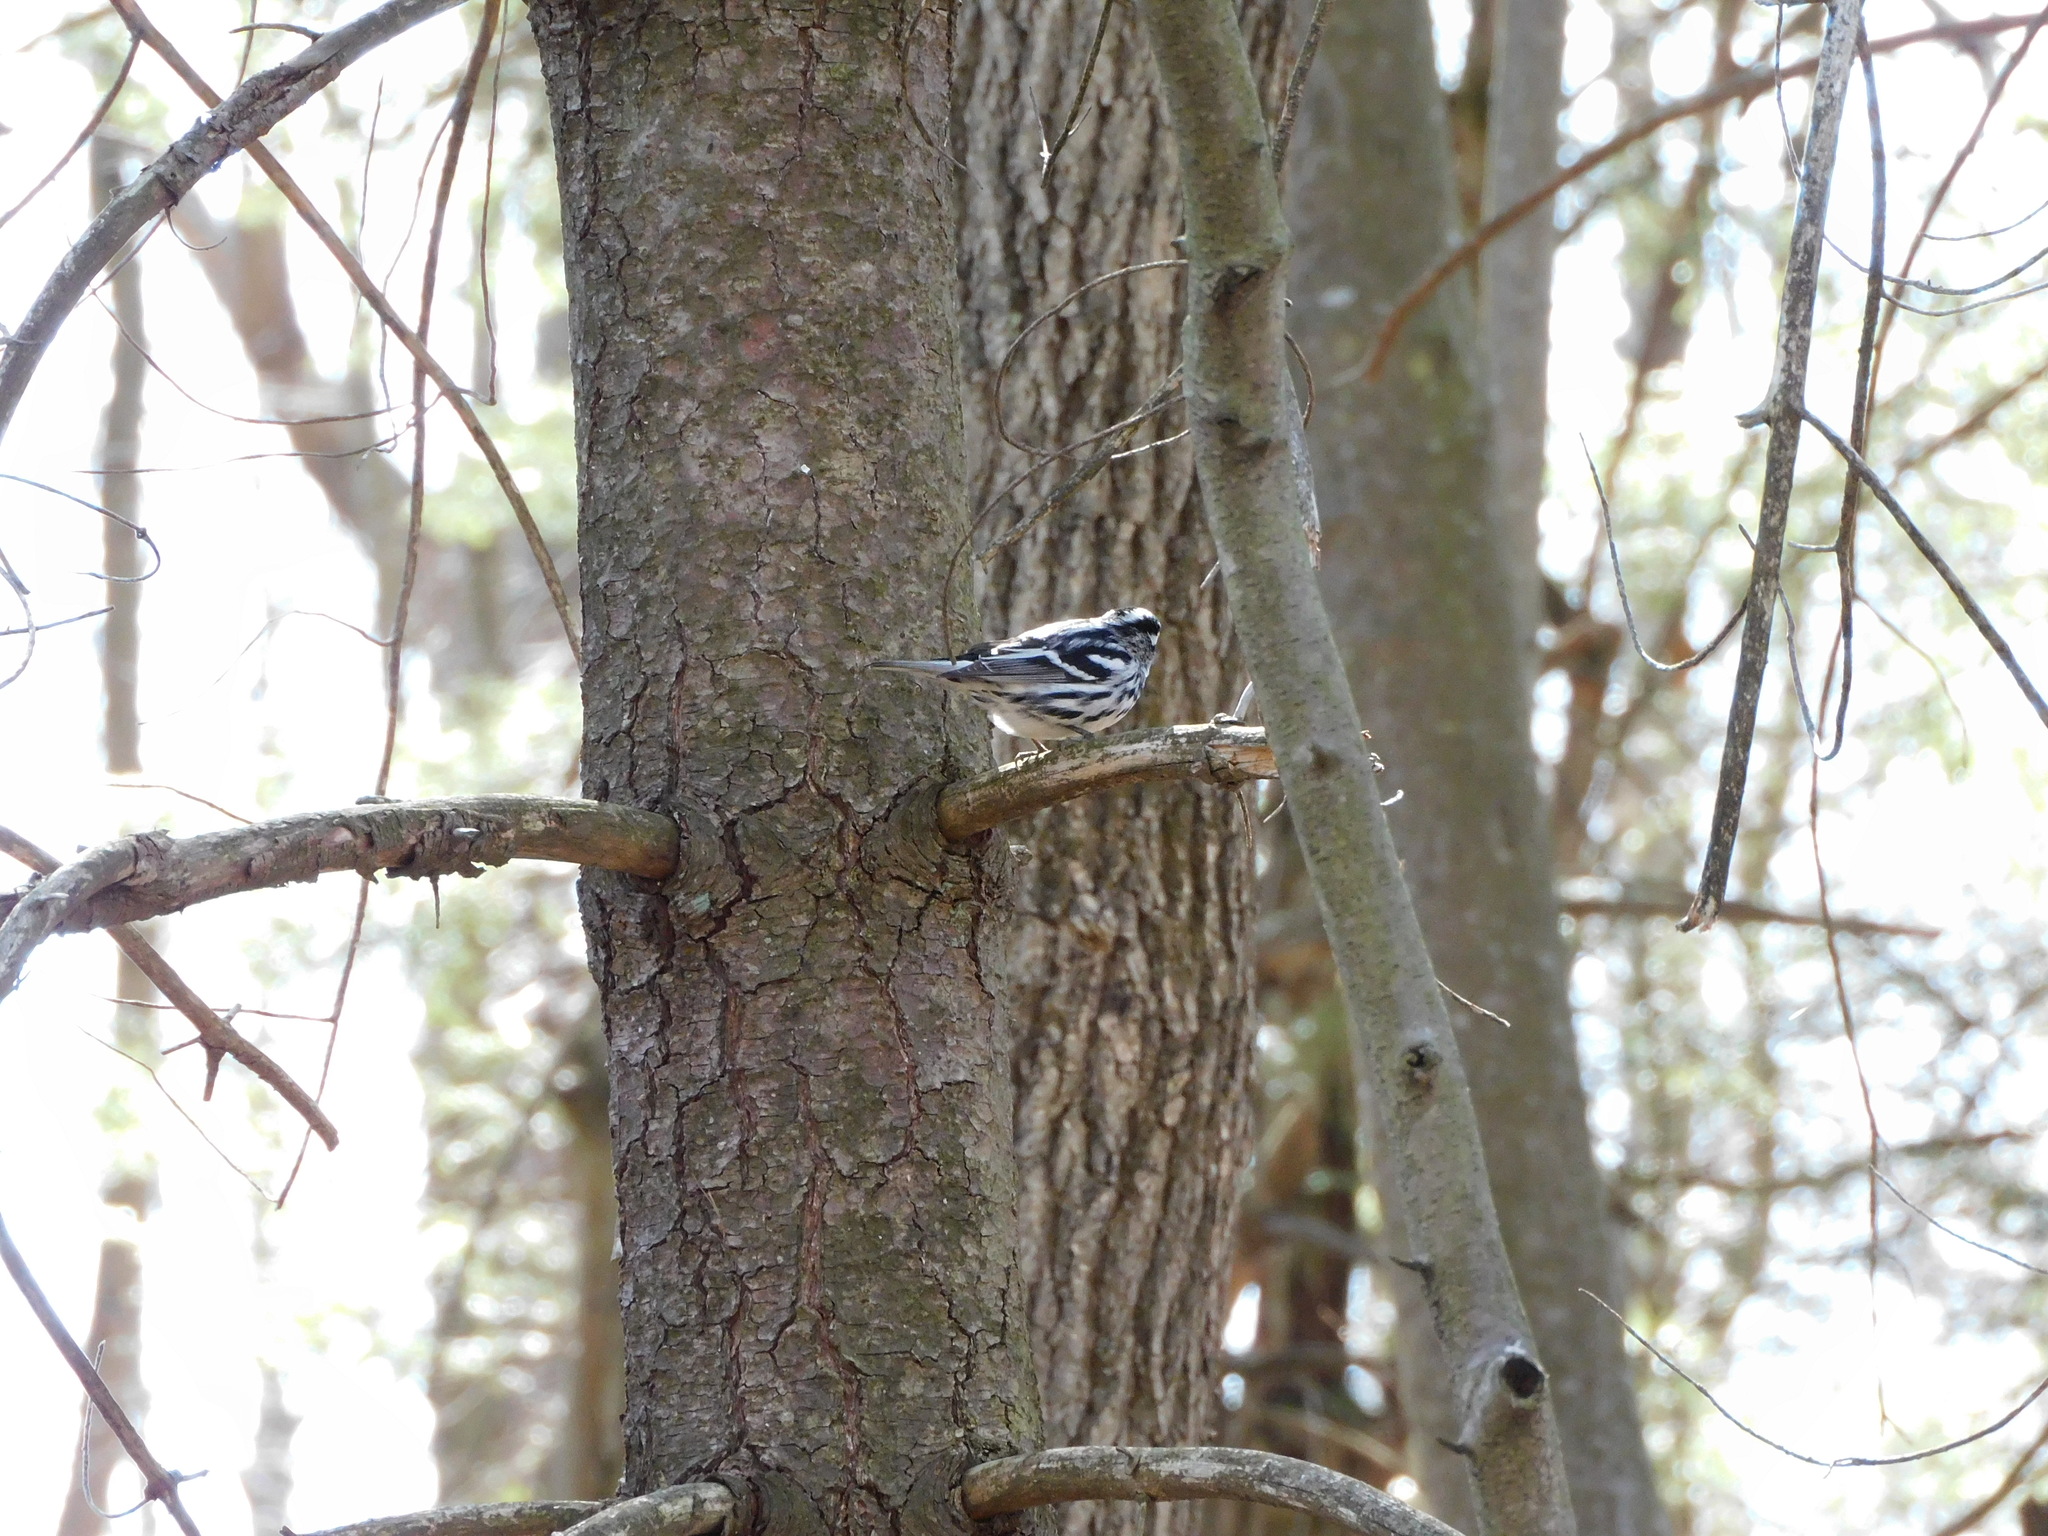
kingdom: Animalia
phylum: Chordata
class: Aves
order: Passeriformes
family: Parulidae
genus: Mniotilta
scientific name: Mniotilta varia
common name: Black-and-white warbler
